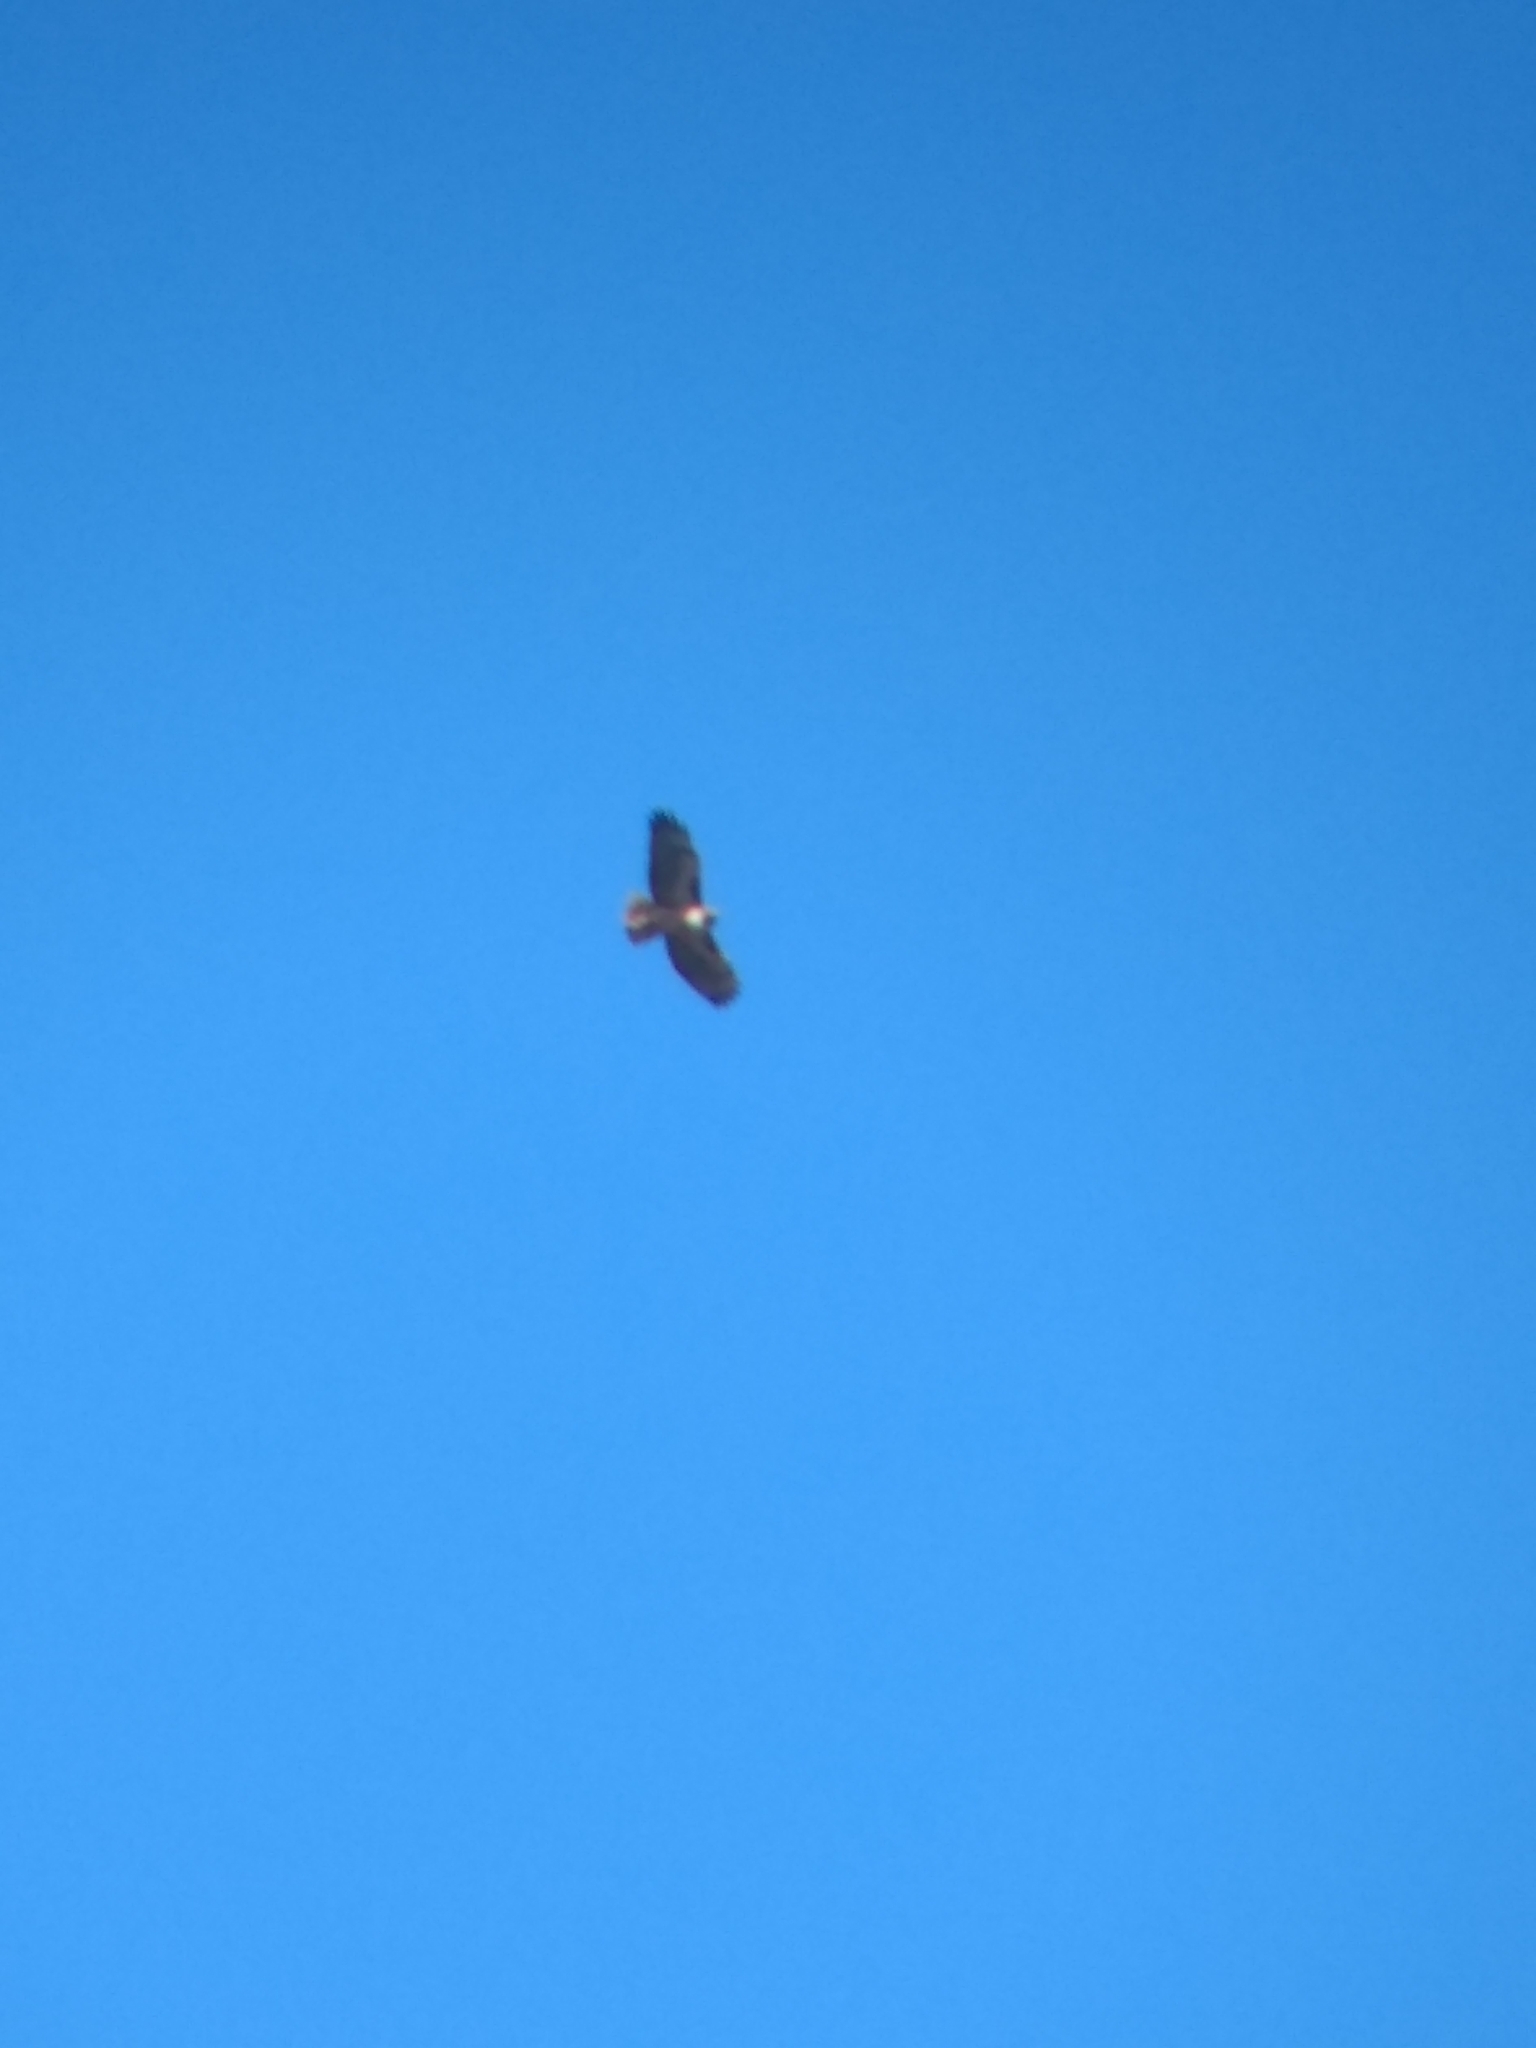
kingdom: Animalia
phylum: Chordata
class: Aves
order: Accipitriformes
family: Accipitridae
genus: Buteo
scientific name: Buteo jamaicensis
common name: Red-tailed hawk
